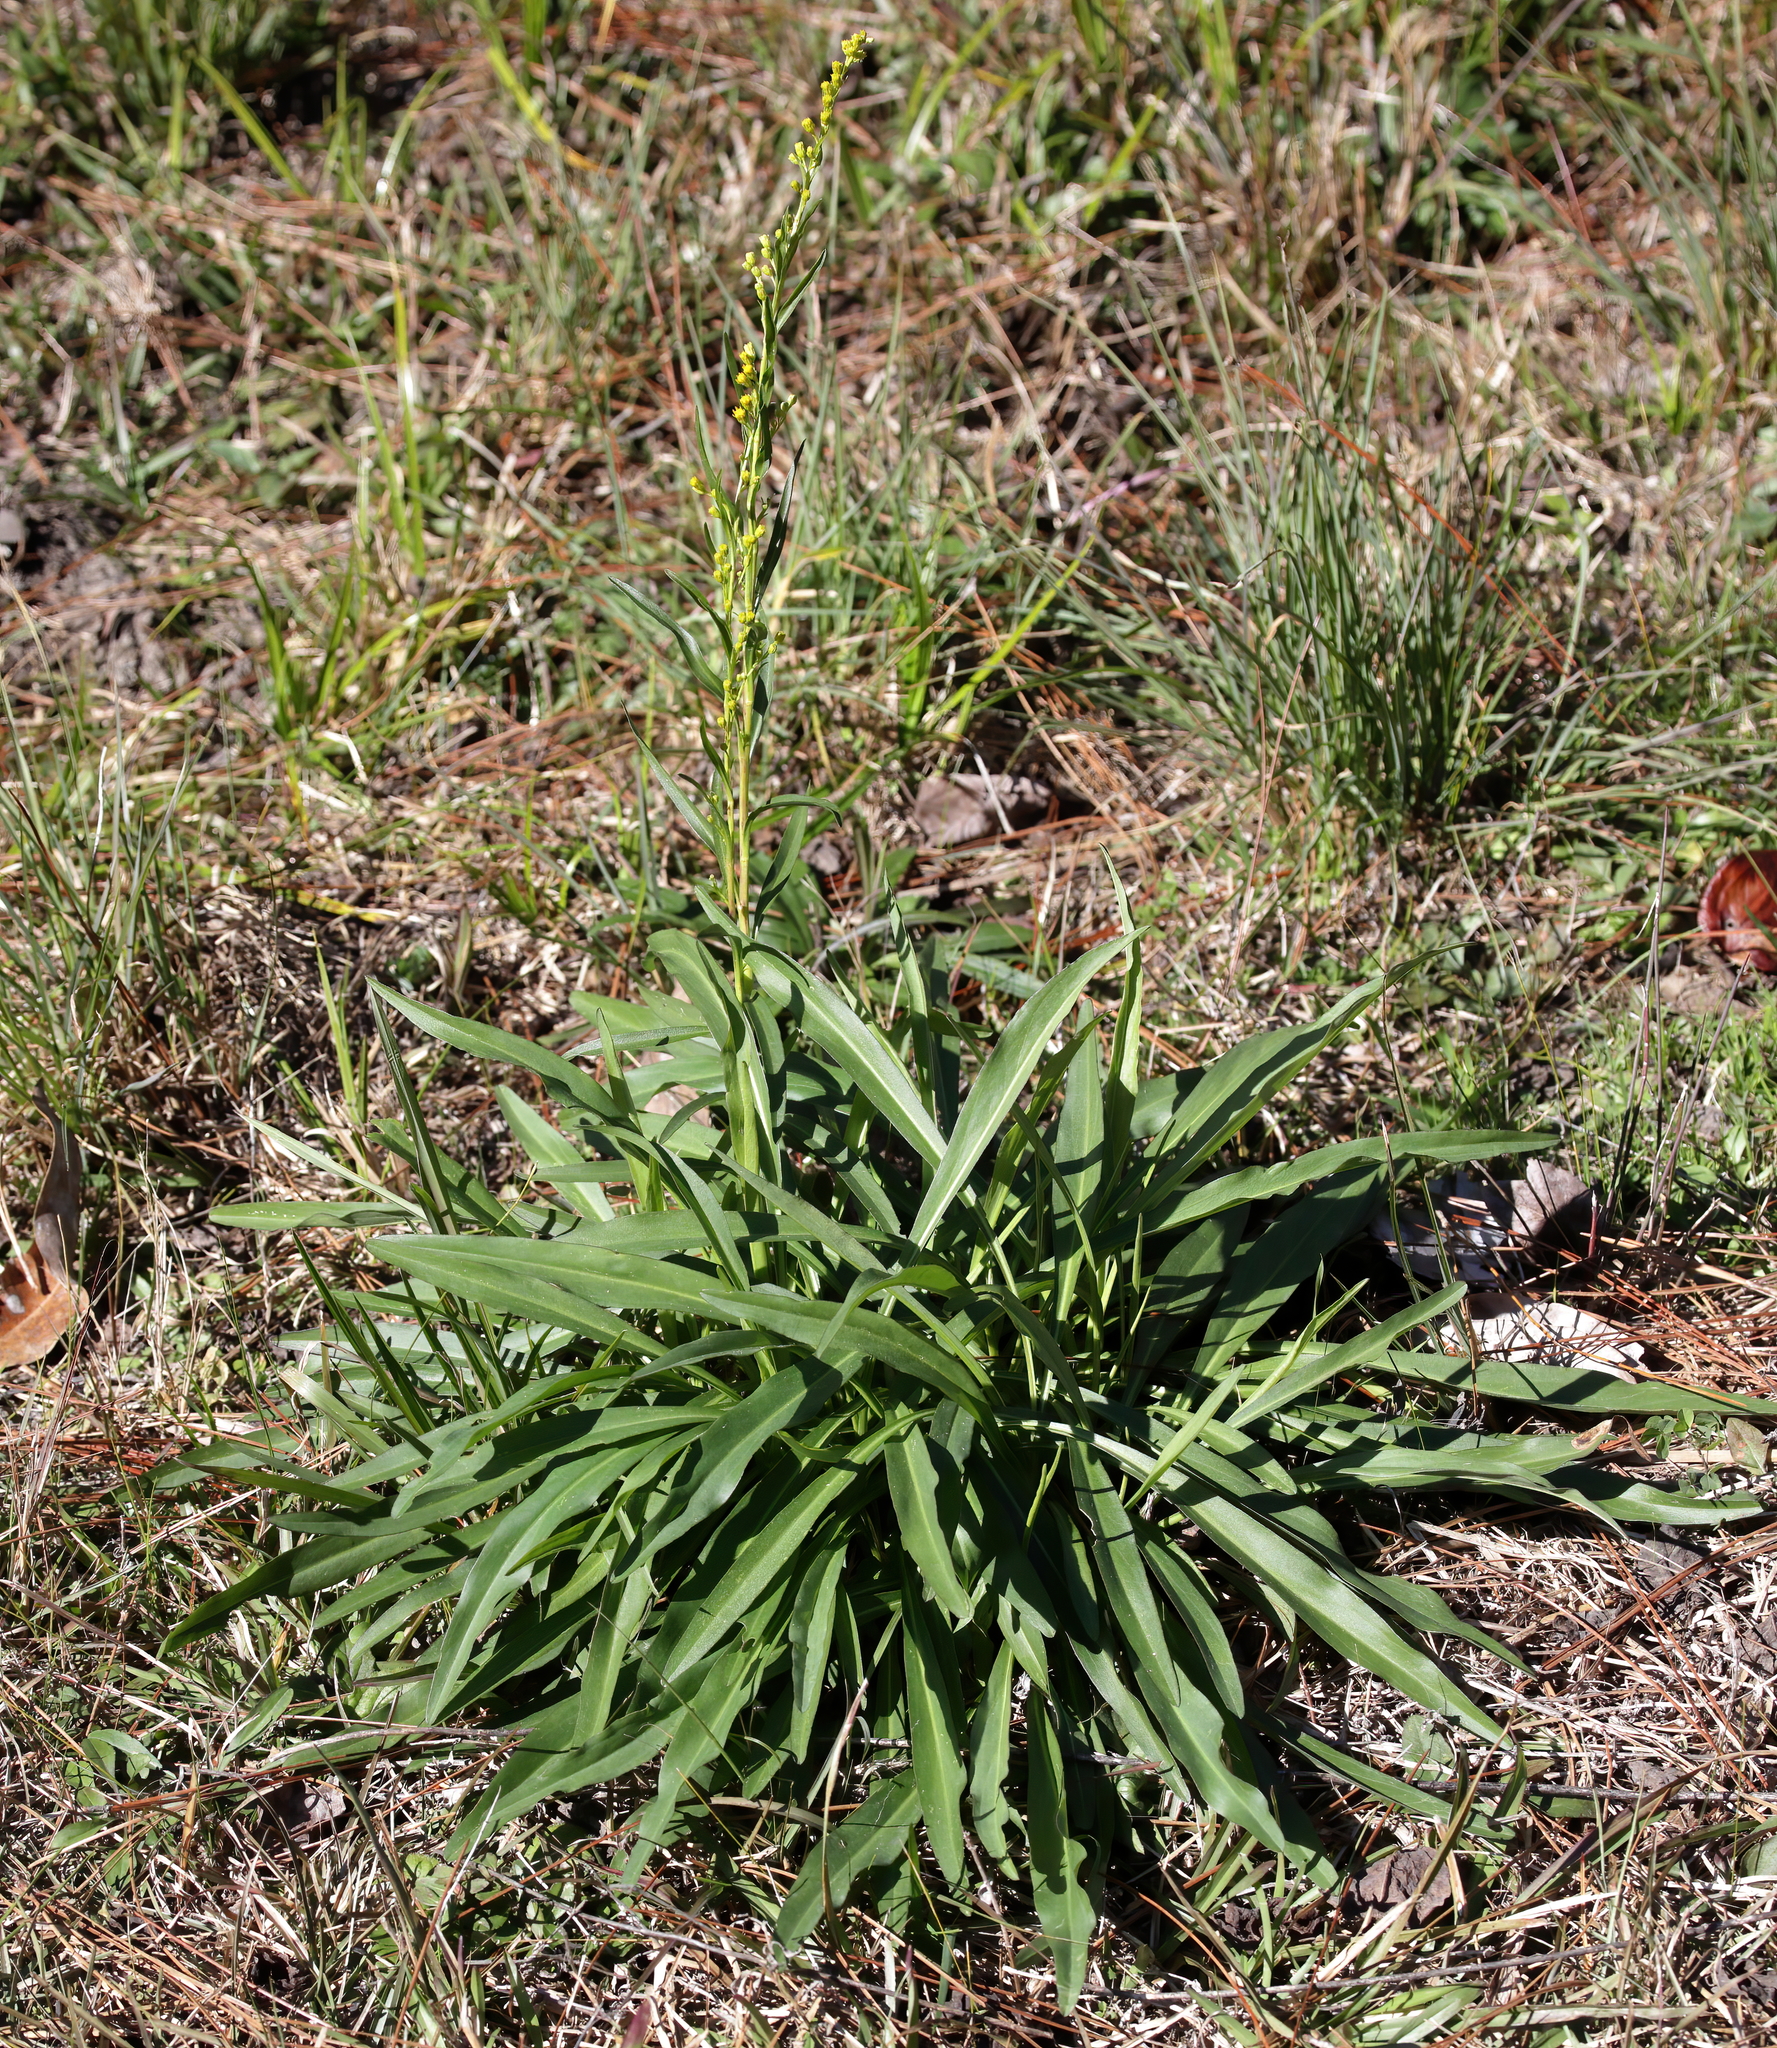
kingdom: Plantae
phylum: Tracheophyta
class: Magnoliopsida
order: Asterales
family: Asteraceae
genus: Solidago
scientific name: Solidago mexicana
